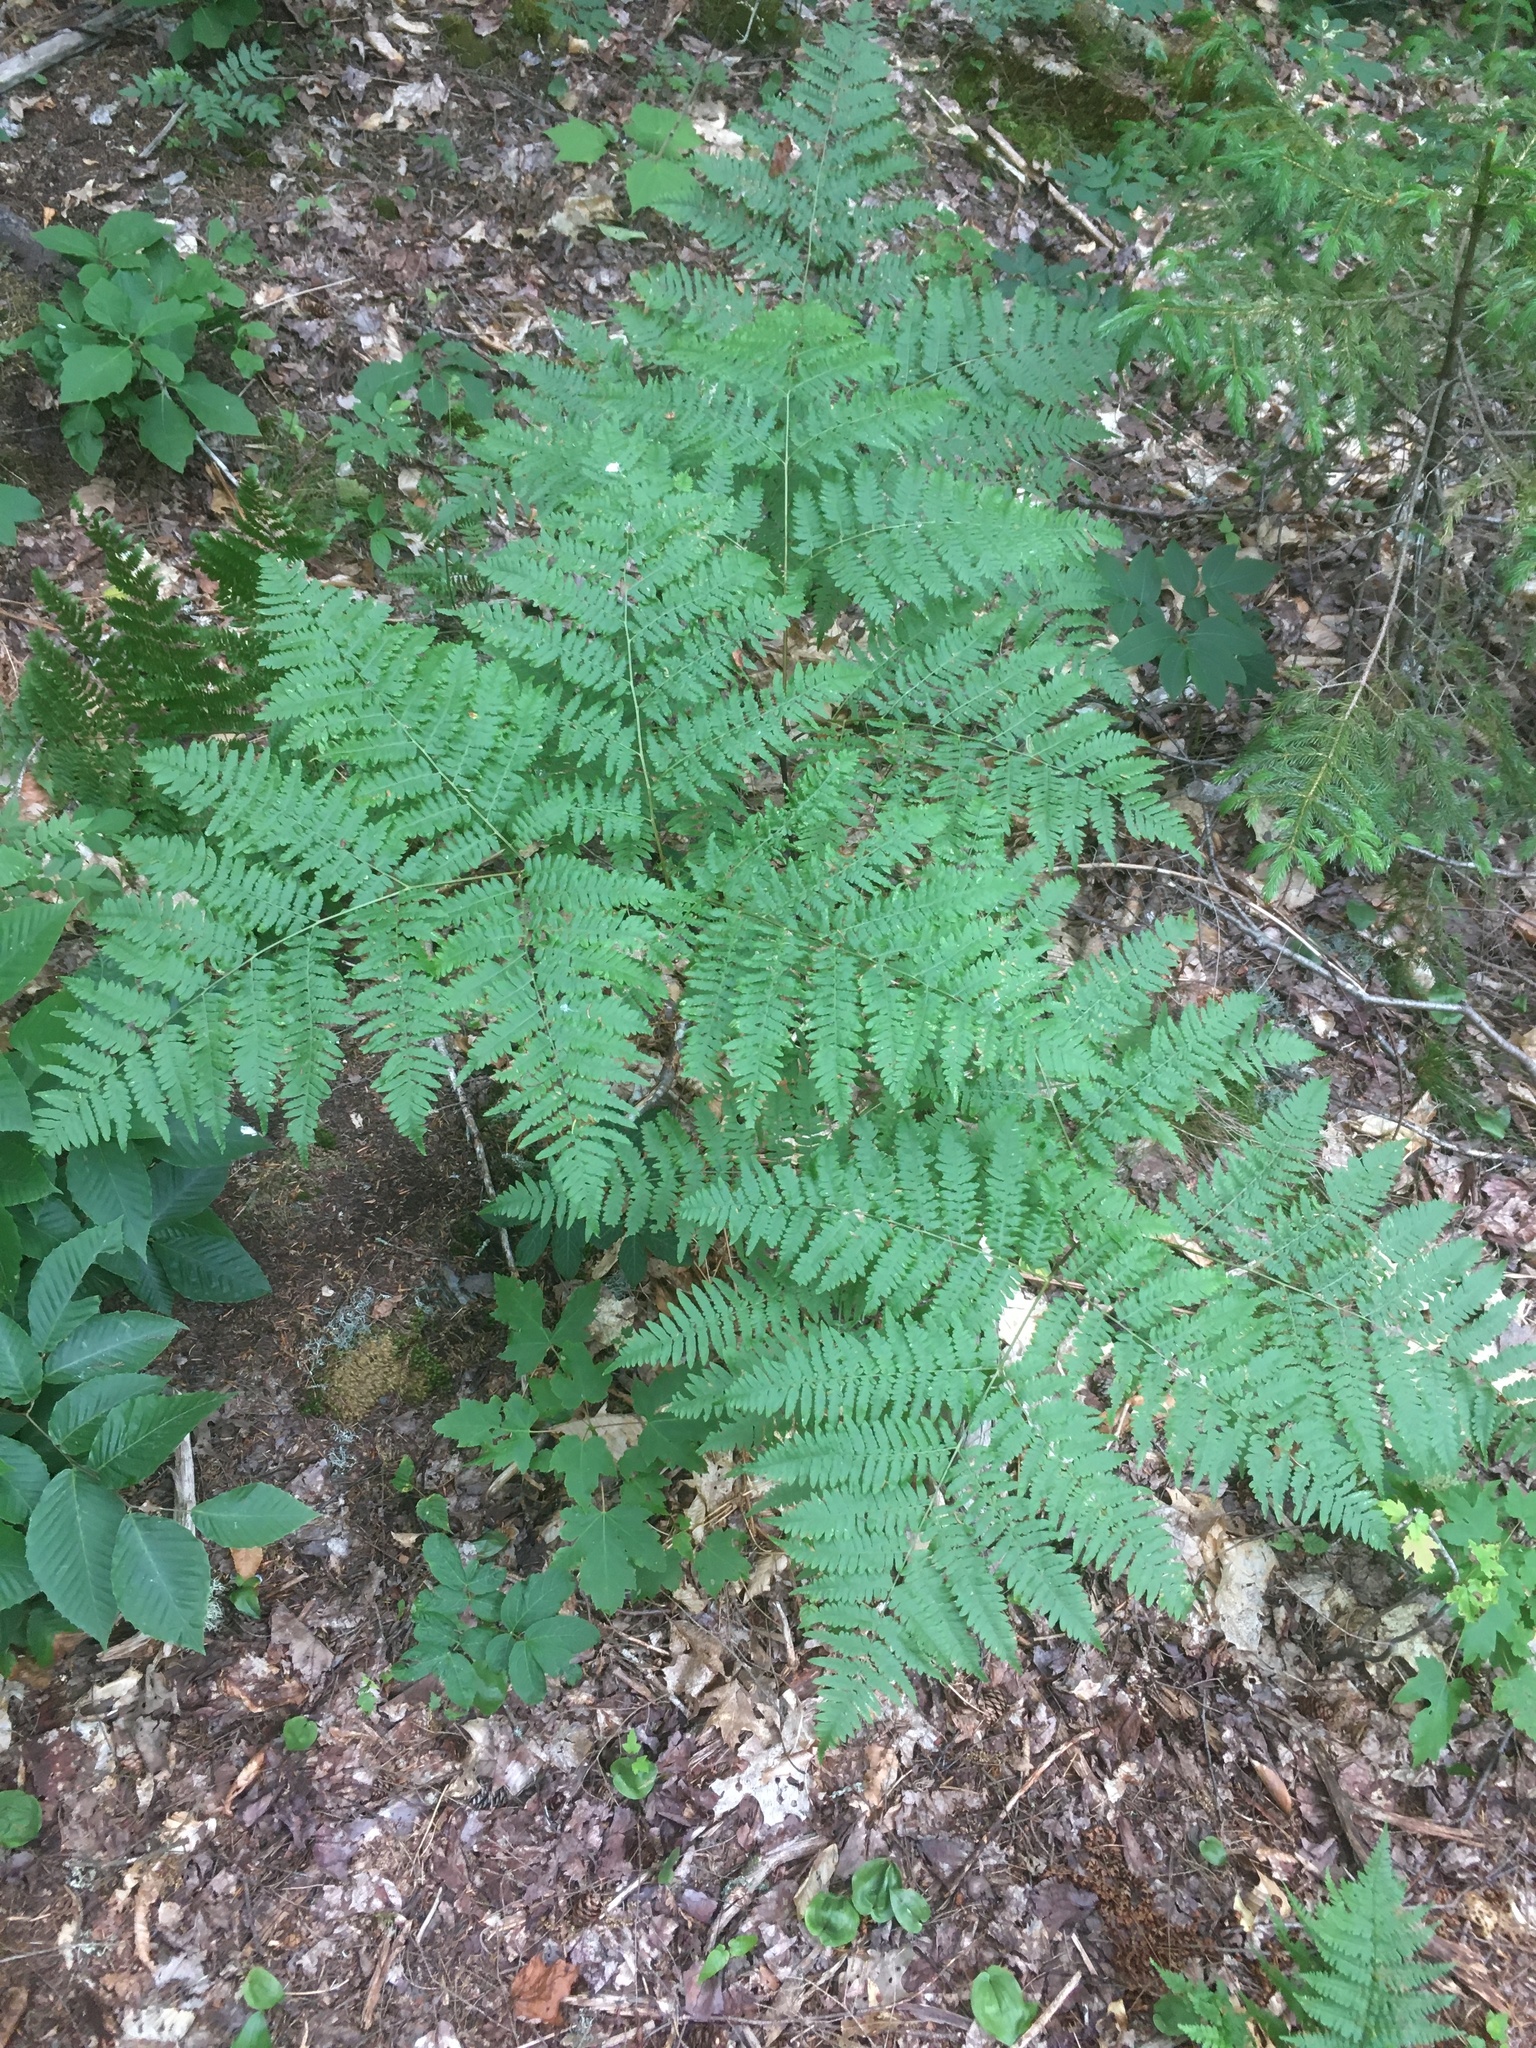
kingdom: Plantae
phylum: Tracheophyta
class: Polypodiopsida
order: Polypodiales
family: Dennstaedtiaceae
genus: Pteridium
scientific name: Pteridium aquilinum
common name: Bracken
